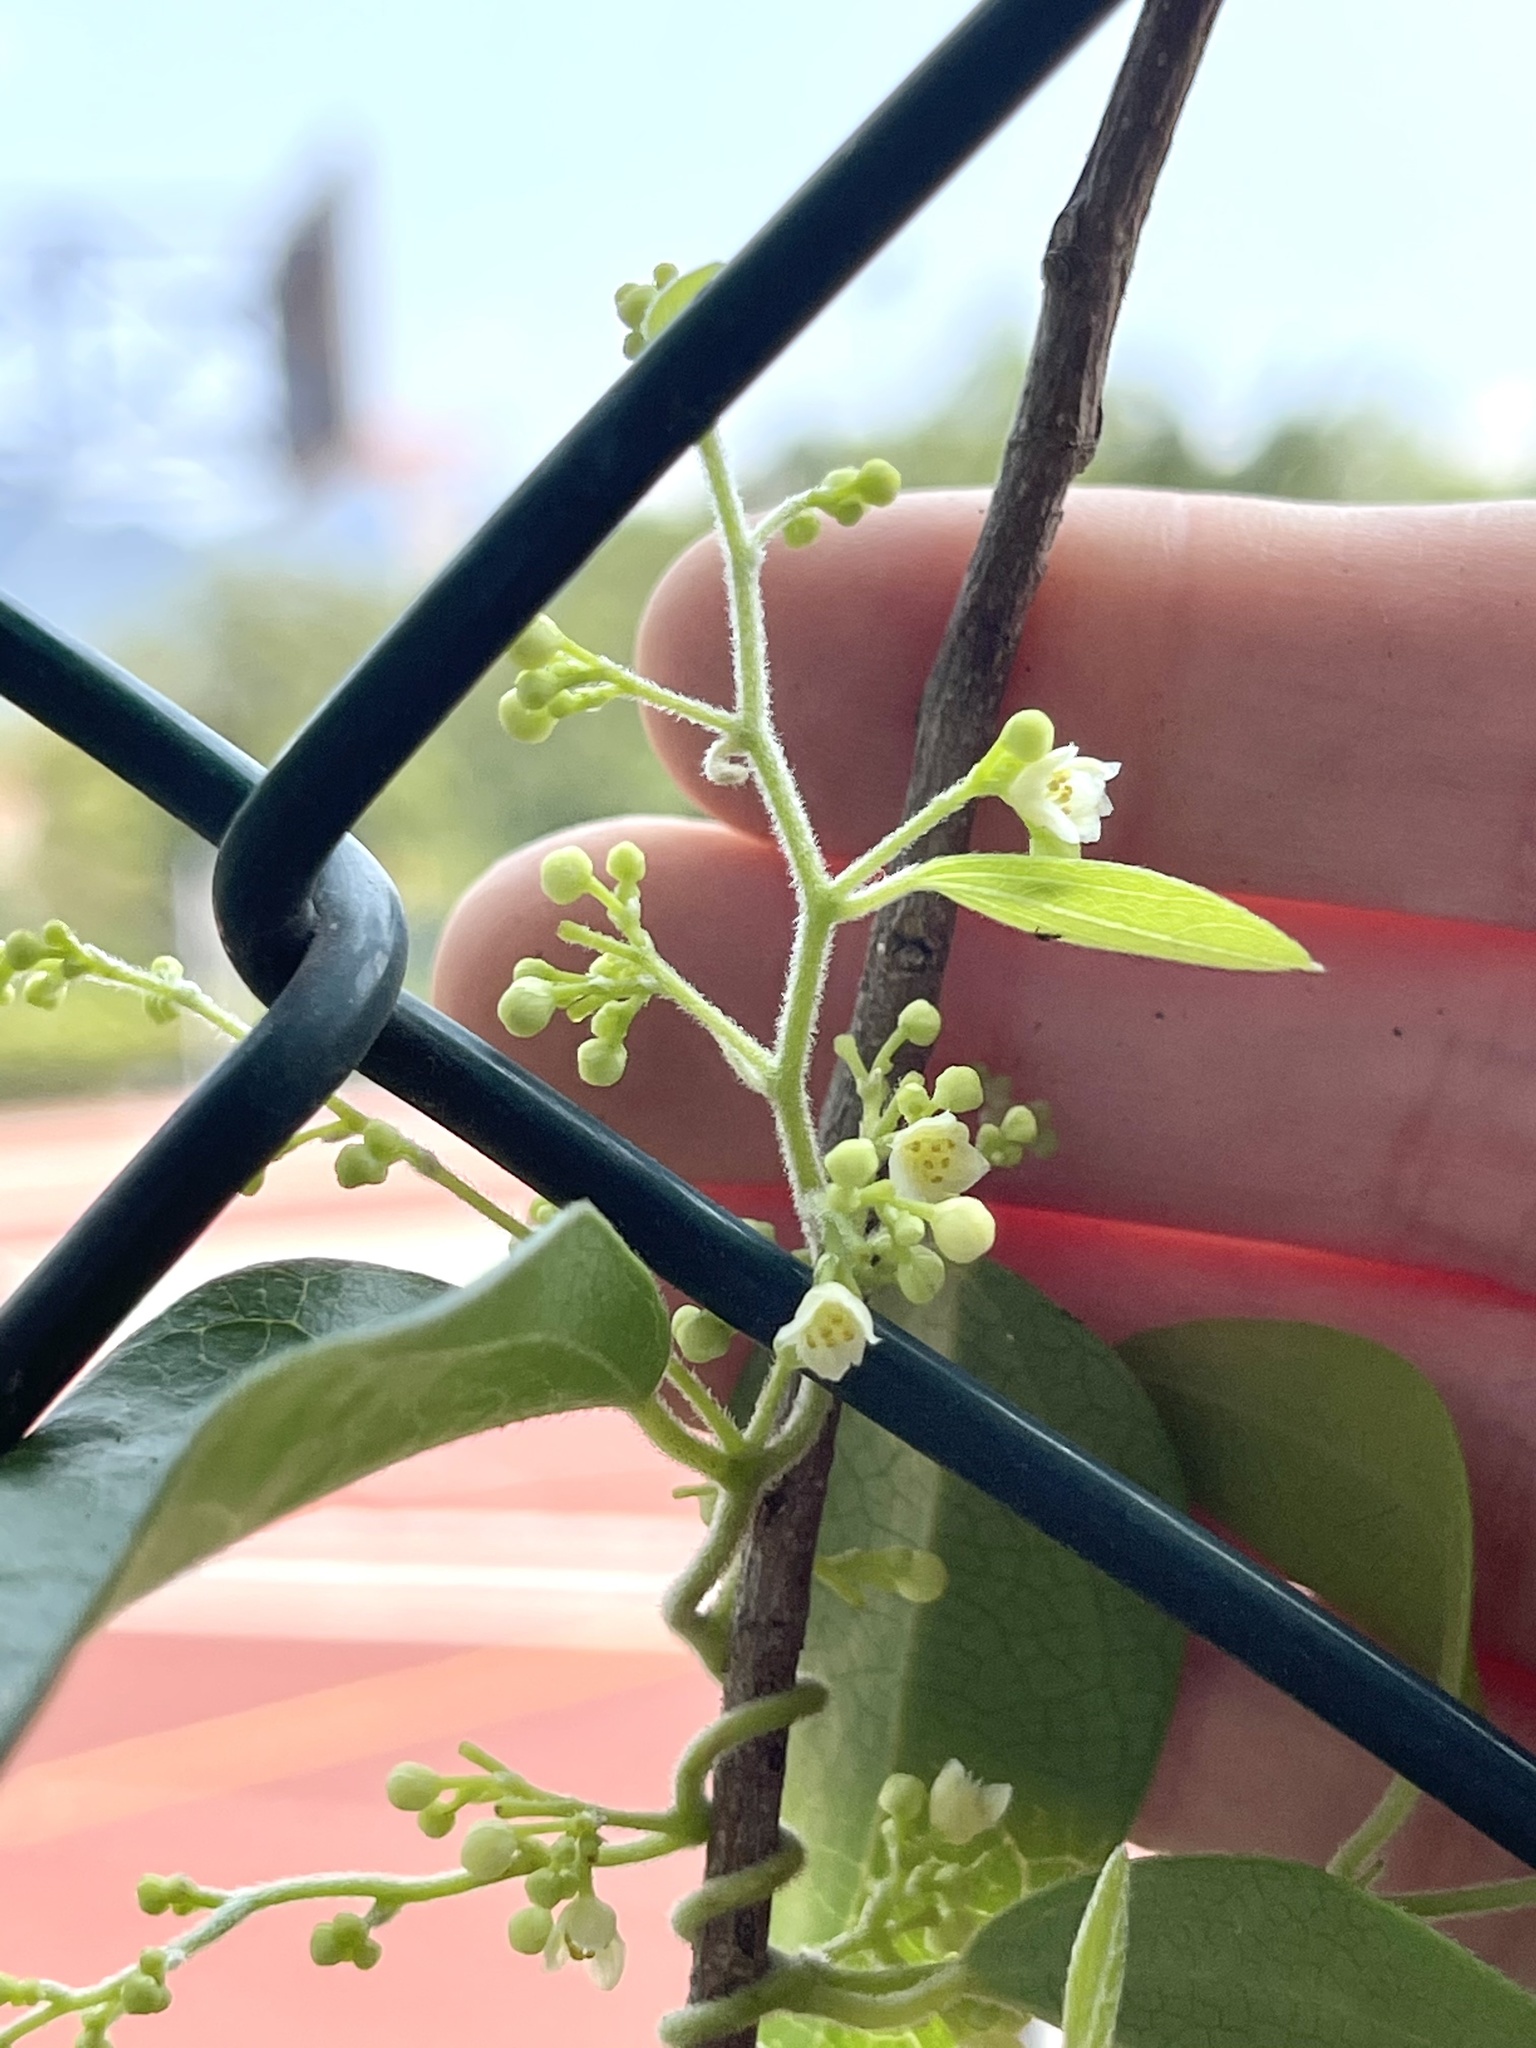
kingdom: Plantae
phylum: Tracheophyta
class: Magnoliopsida
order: Ranunculales
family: Menispermaceae
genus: Cocculus
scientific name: Cocculus orbiculatus
